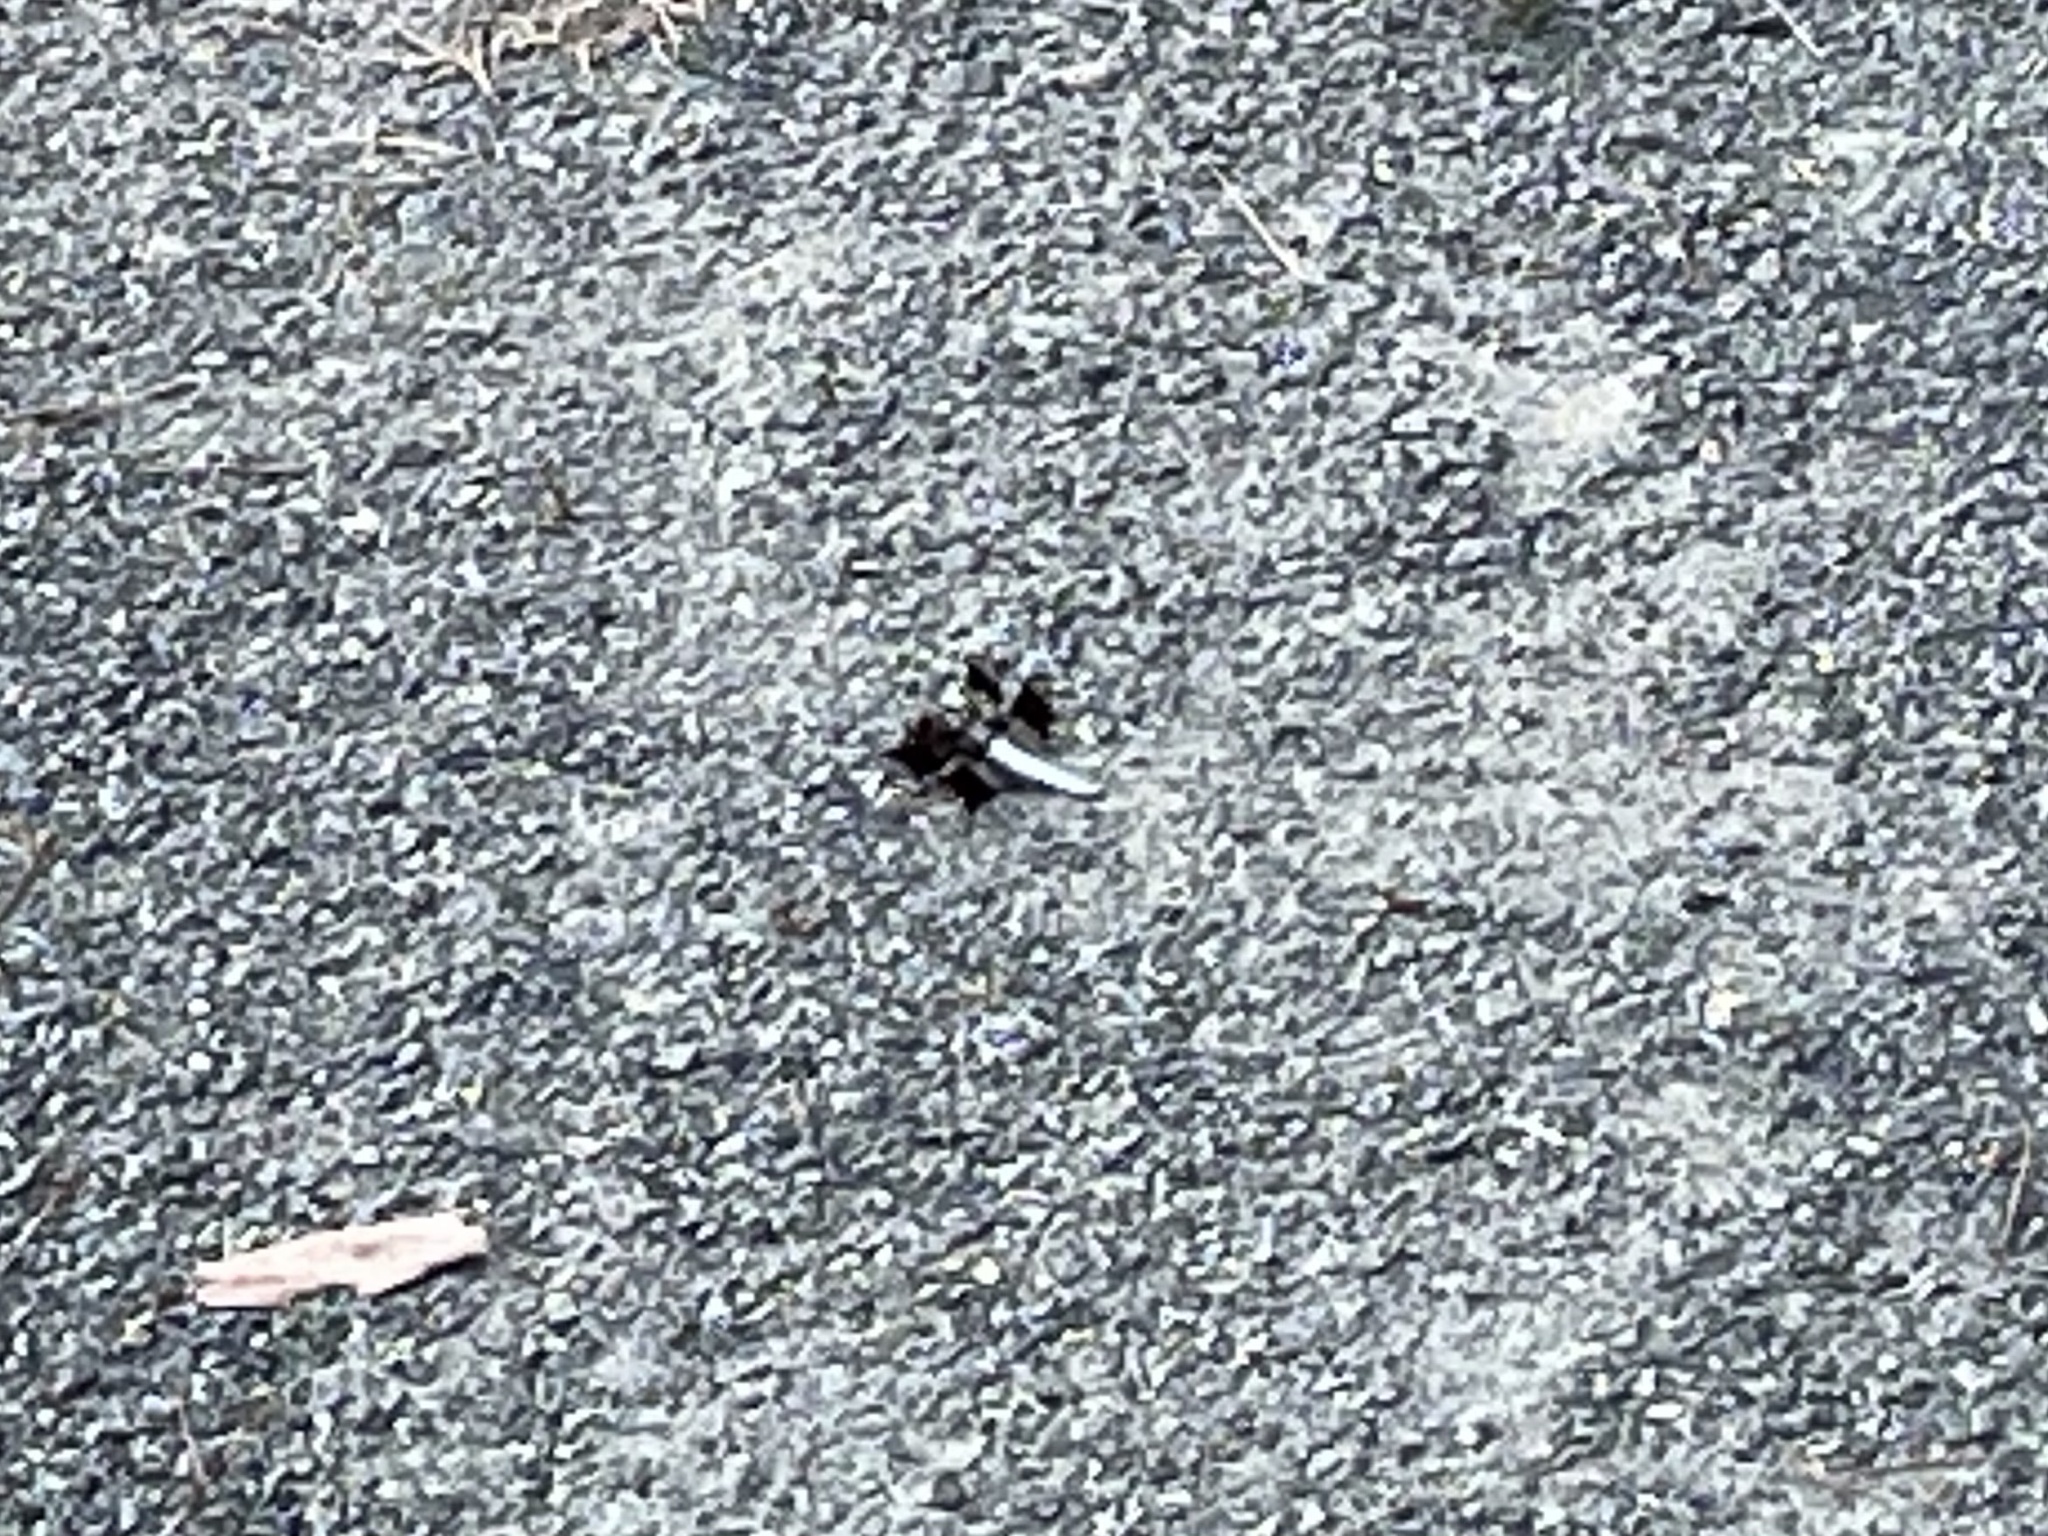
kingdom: Animalia
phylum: Arthropoda
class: Insecta
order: Odonata
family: Libellulidae
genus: Plathemis
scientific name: Plathemis lydia
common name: Common whitetail
